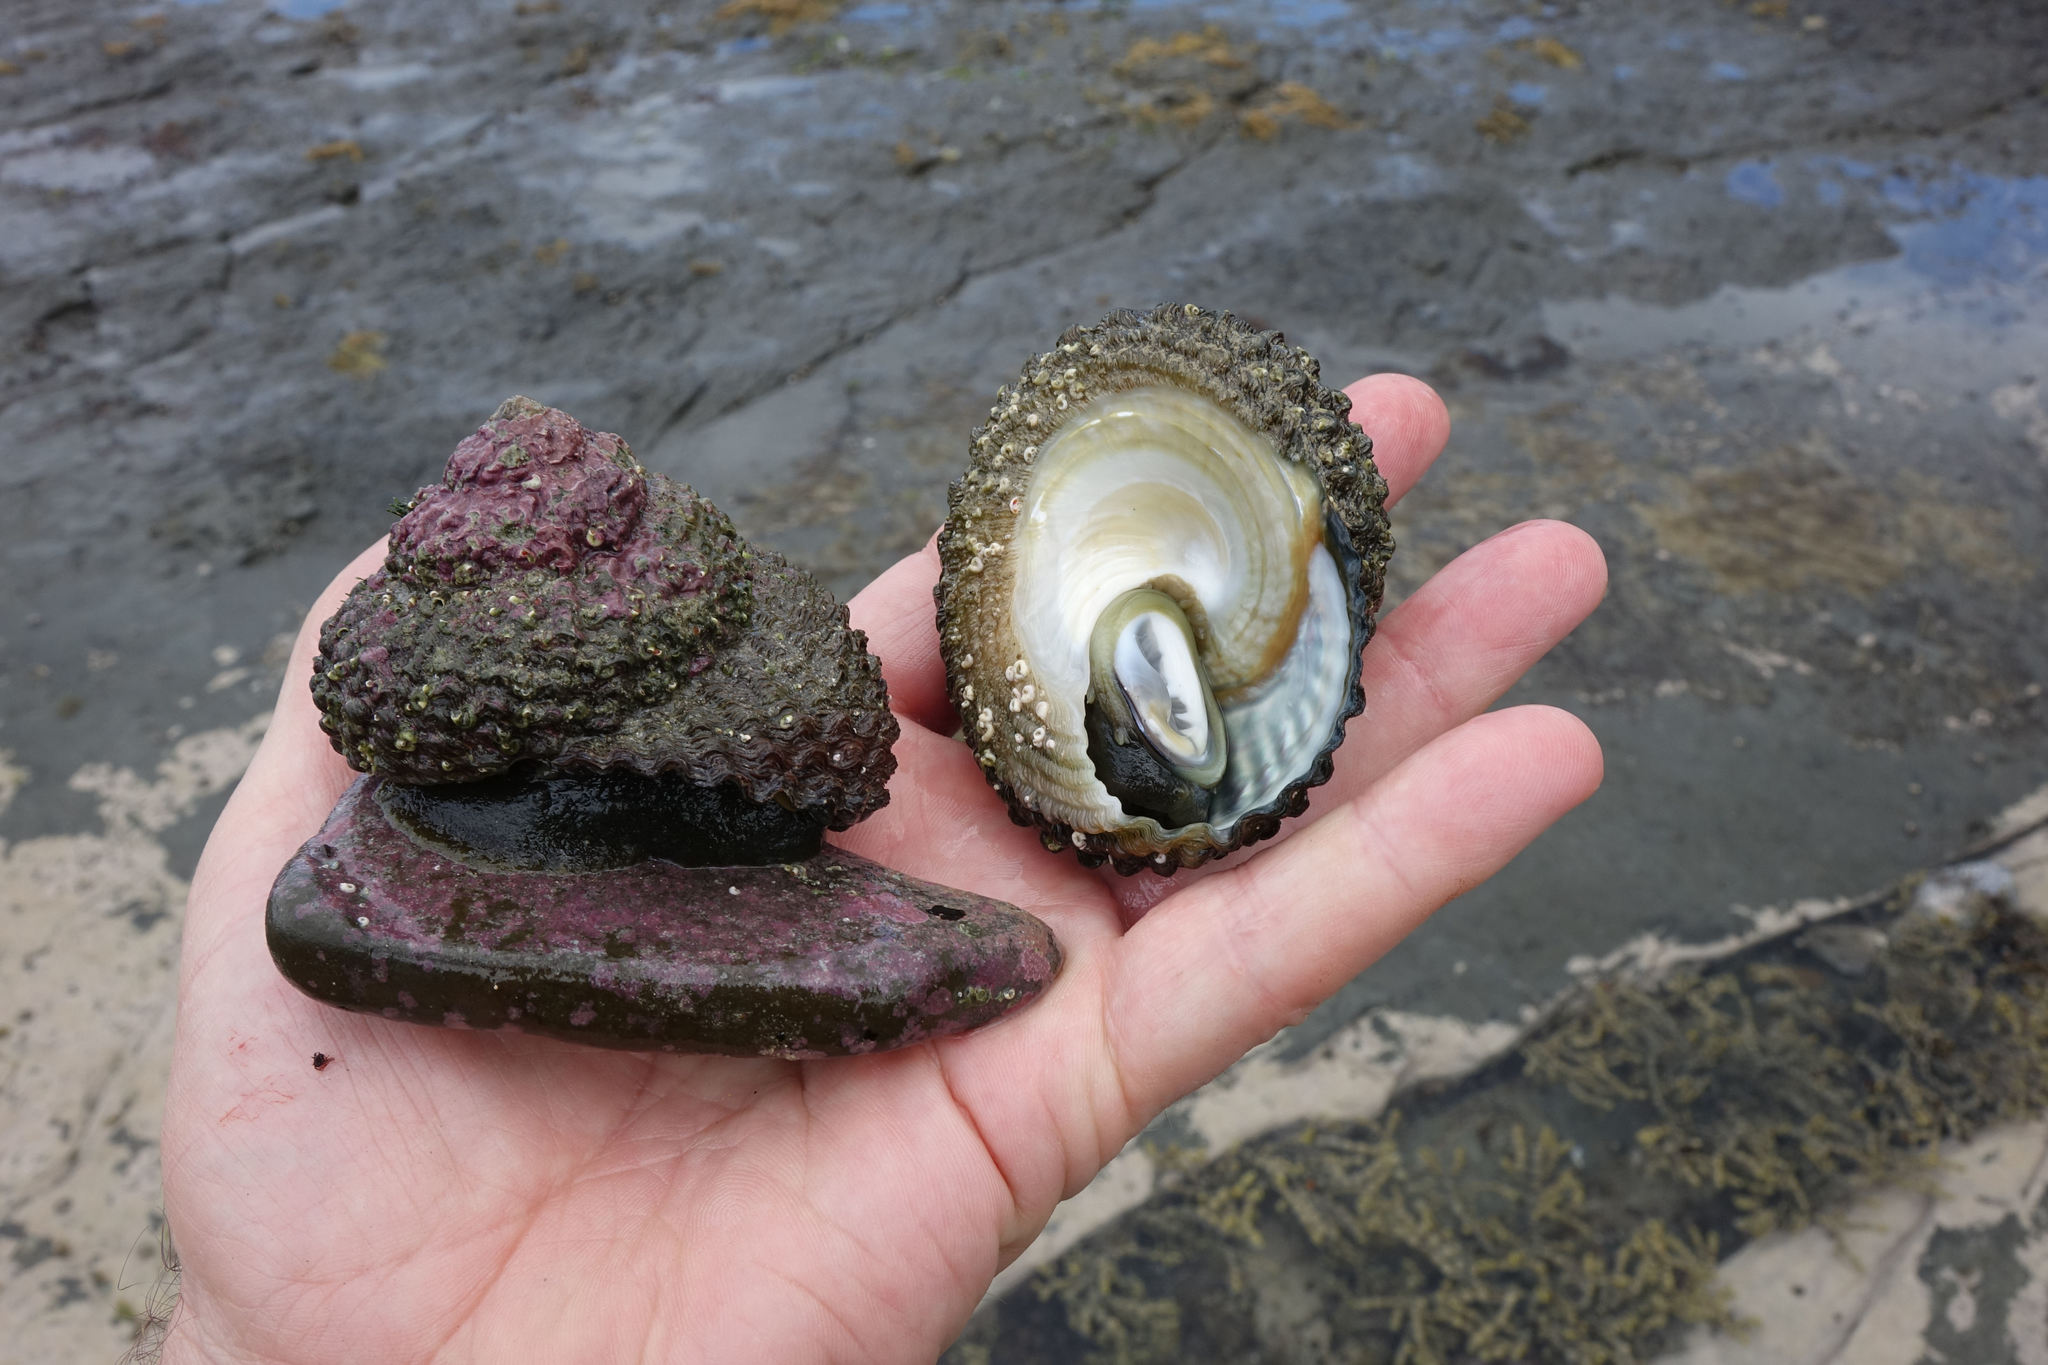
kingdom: Animalia
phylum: Mollusca
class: Gastropoda
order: Trochida
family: Turbinidae
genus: Cookia
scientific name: Cookia sulcata
